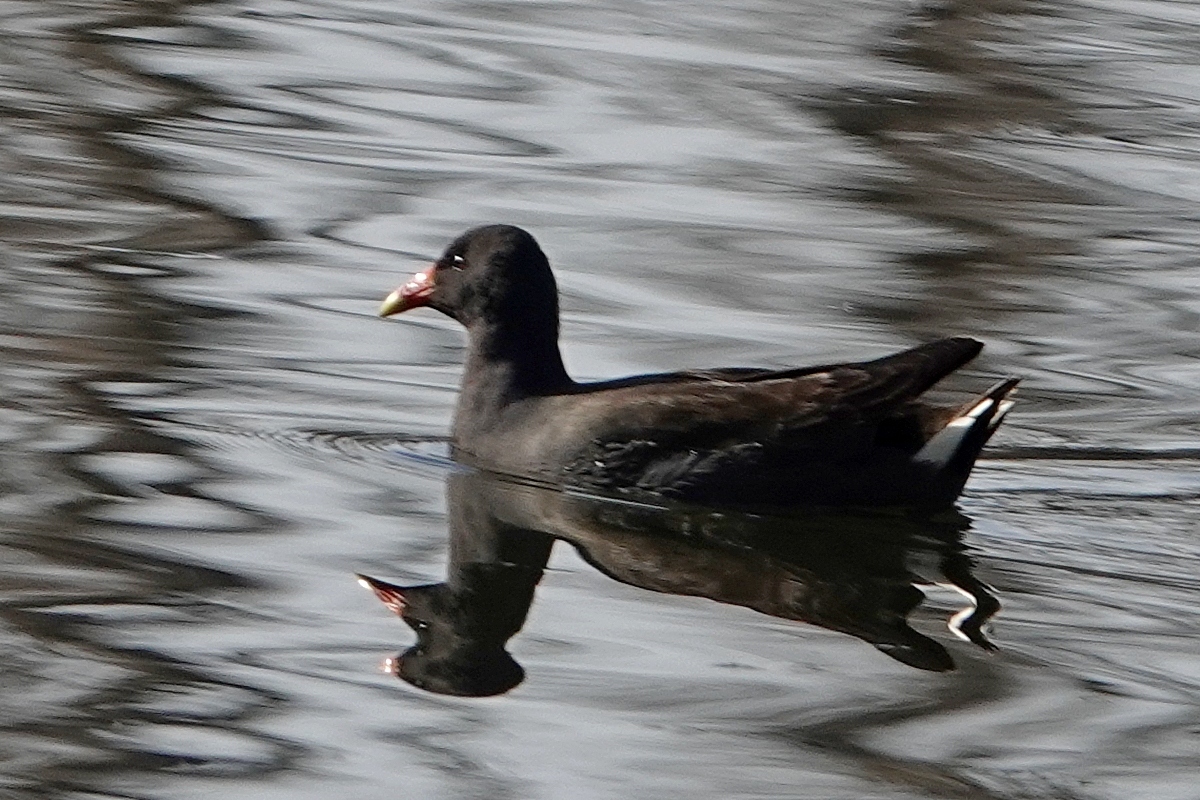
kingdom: Animalia
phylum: Chordata
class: Aves
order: Gruiformes
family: Rallidae
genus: Gallinula
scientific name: Gallinula tenebrosa
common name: Dusky moorhen
